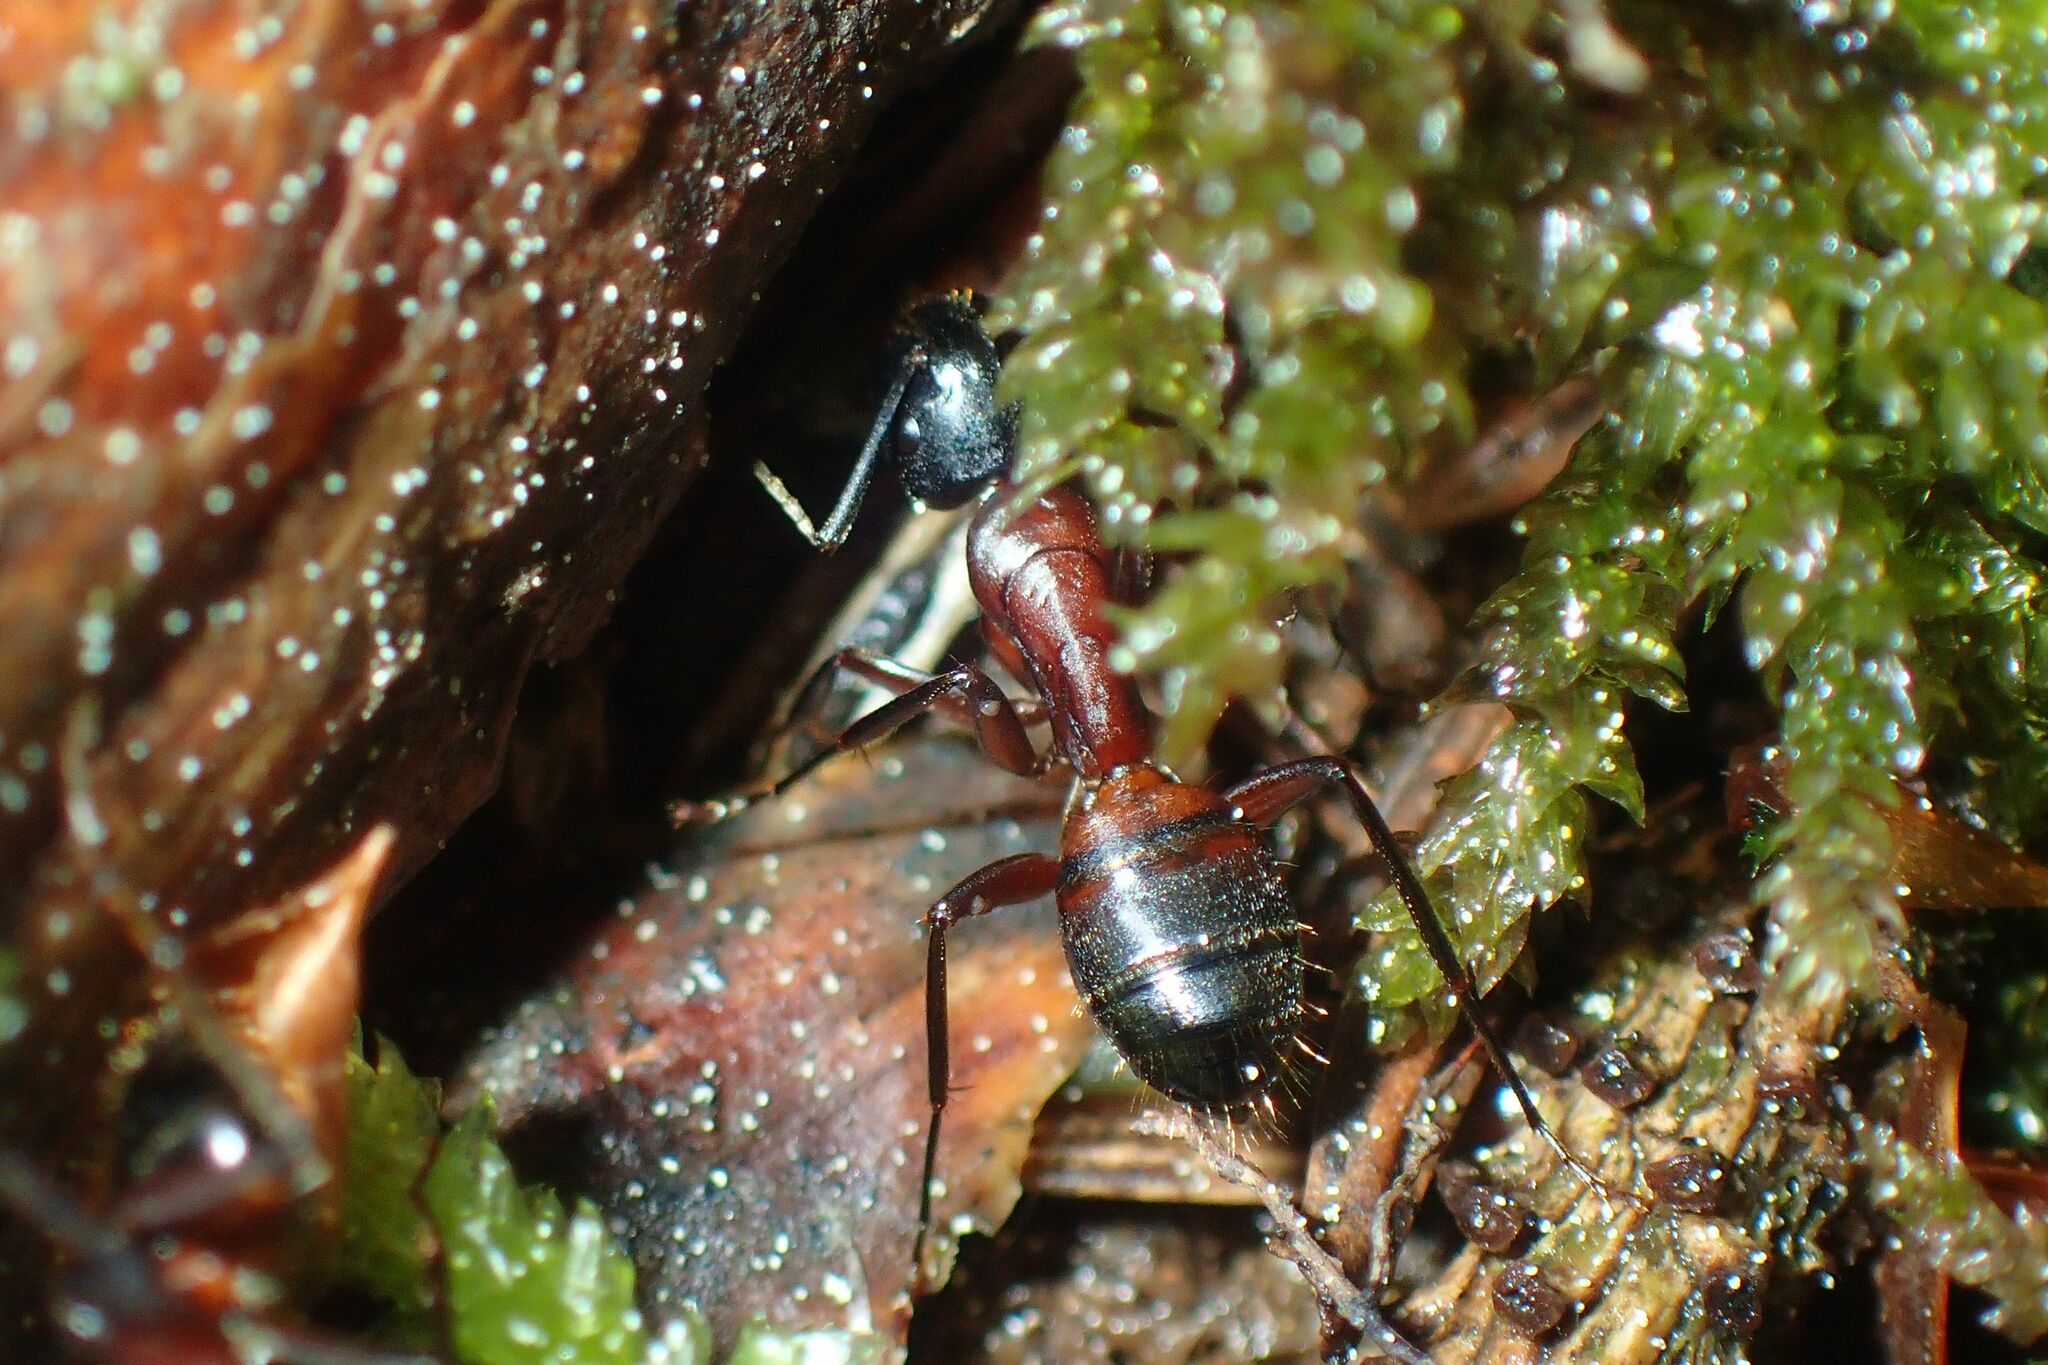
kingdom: Animalia
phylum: Arthropoda
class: Insecta
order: Hymenoptera
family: Formicidae
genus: Camponotus
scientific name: Camponotus ligniperdus
